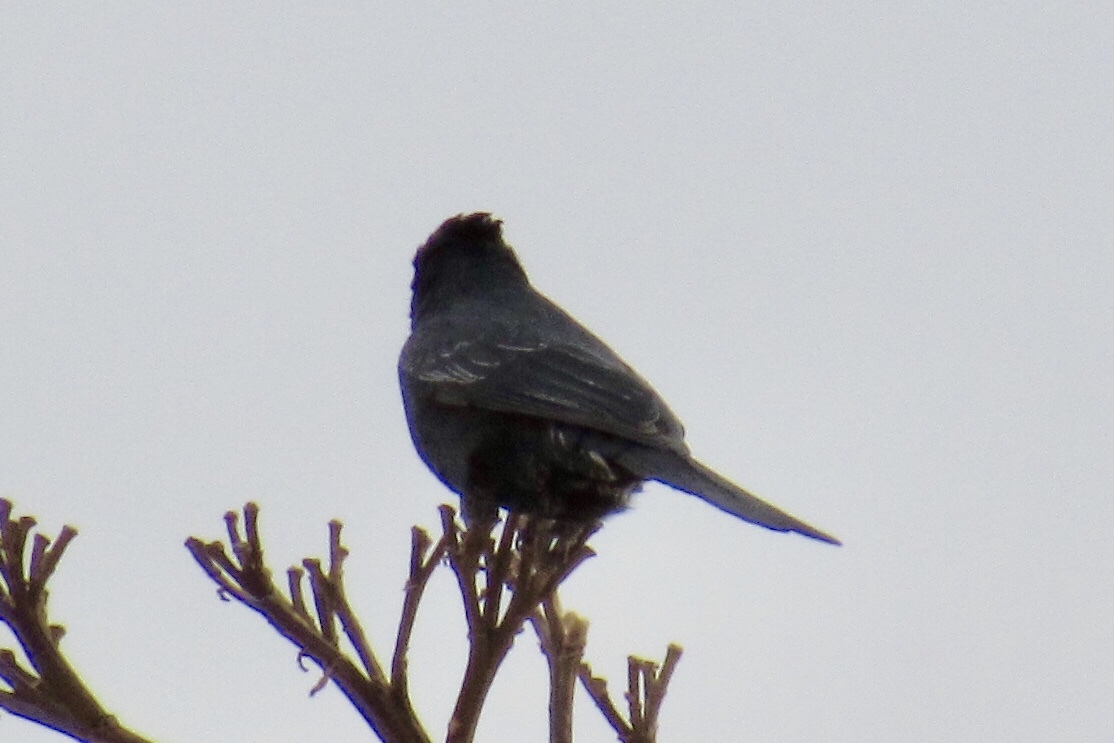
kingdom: Animalia
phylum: Chordata
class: Aves
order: Passeriformes
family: Ptilogonatidae
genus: Phainopepla
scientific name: Phainopepla nitens
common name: Phainopepla
